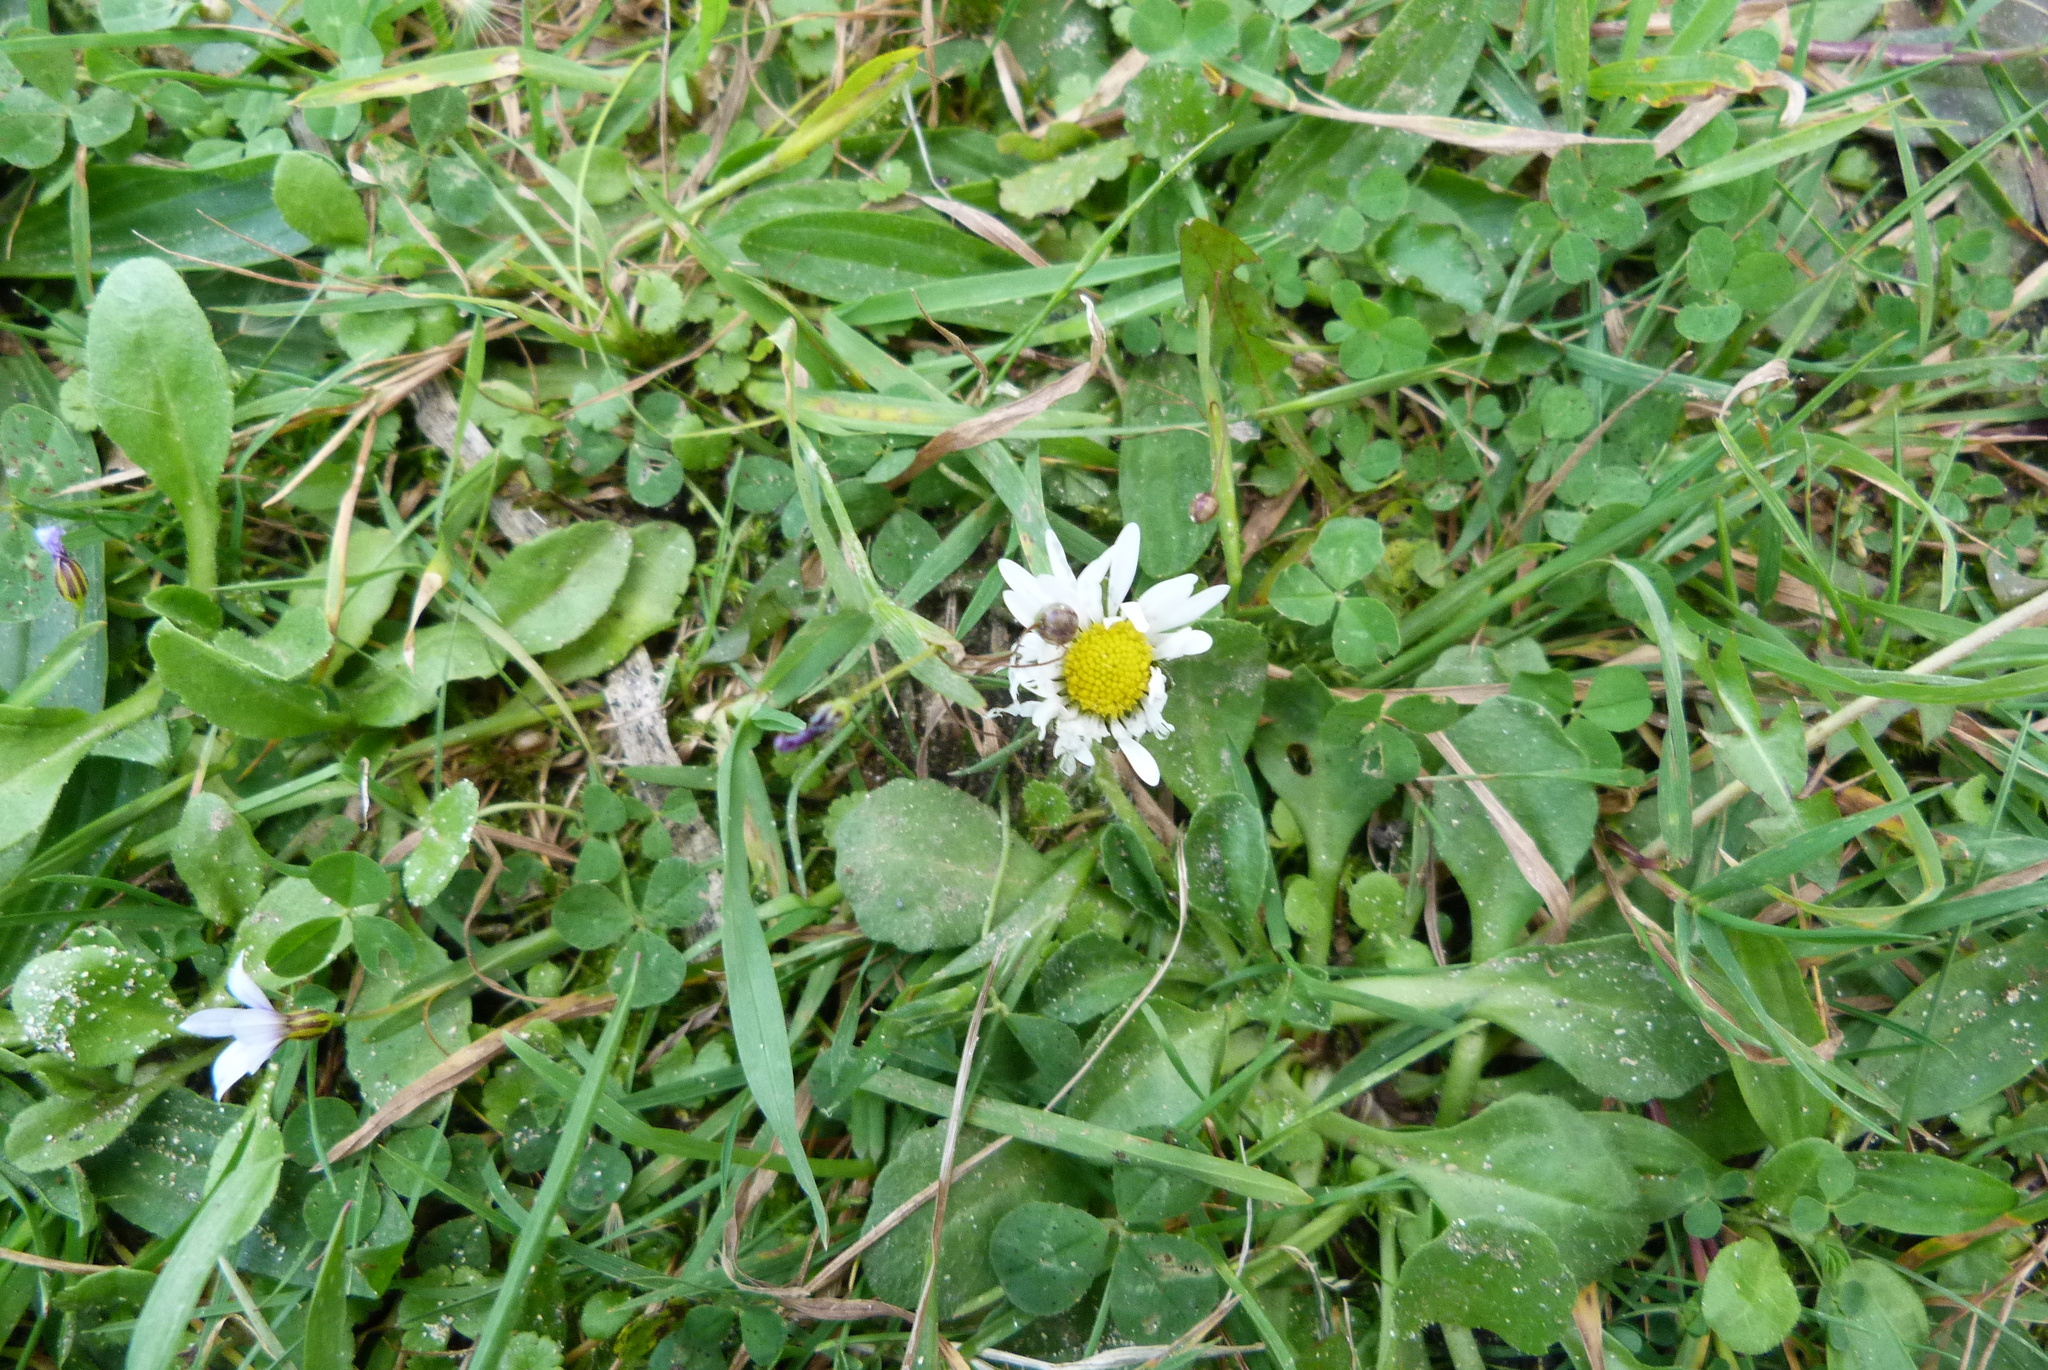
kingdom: Plantae
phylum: Tracheophyta
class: Magnoliopsida
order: Asterales
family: Asteraceae
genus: Bellis
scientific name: Bellis perennis
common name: Lawndaisy
